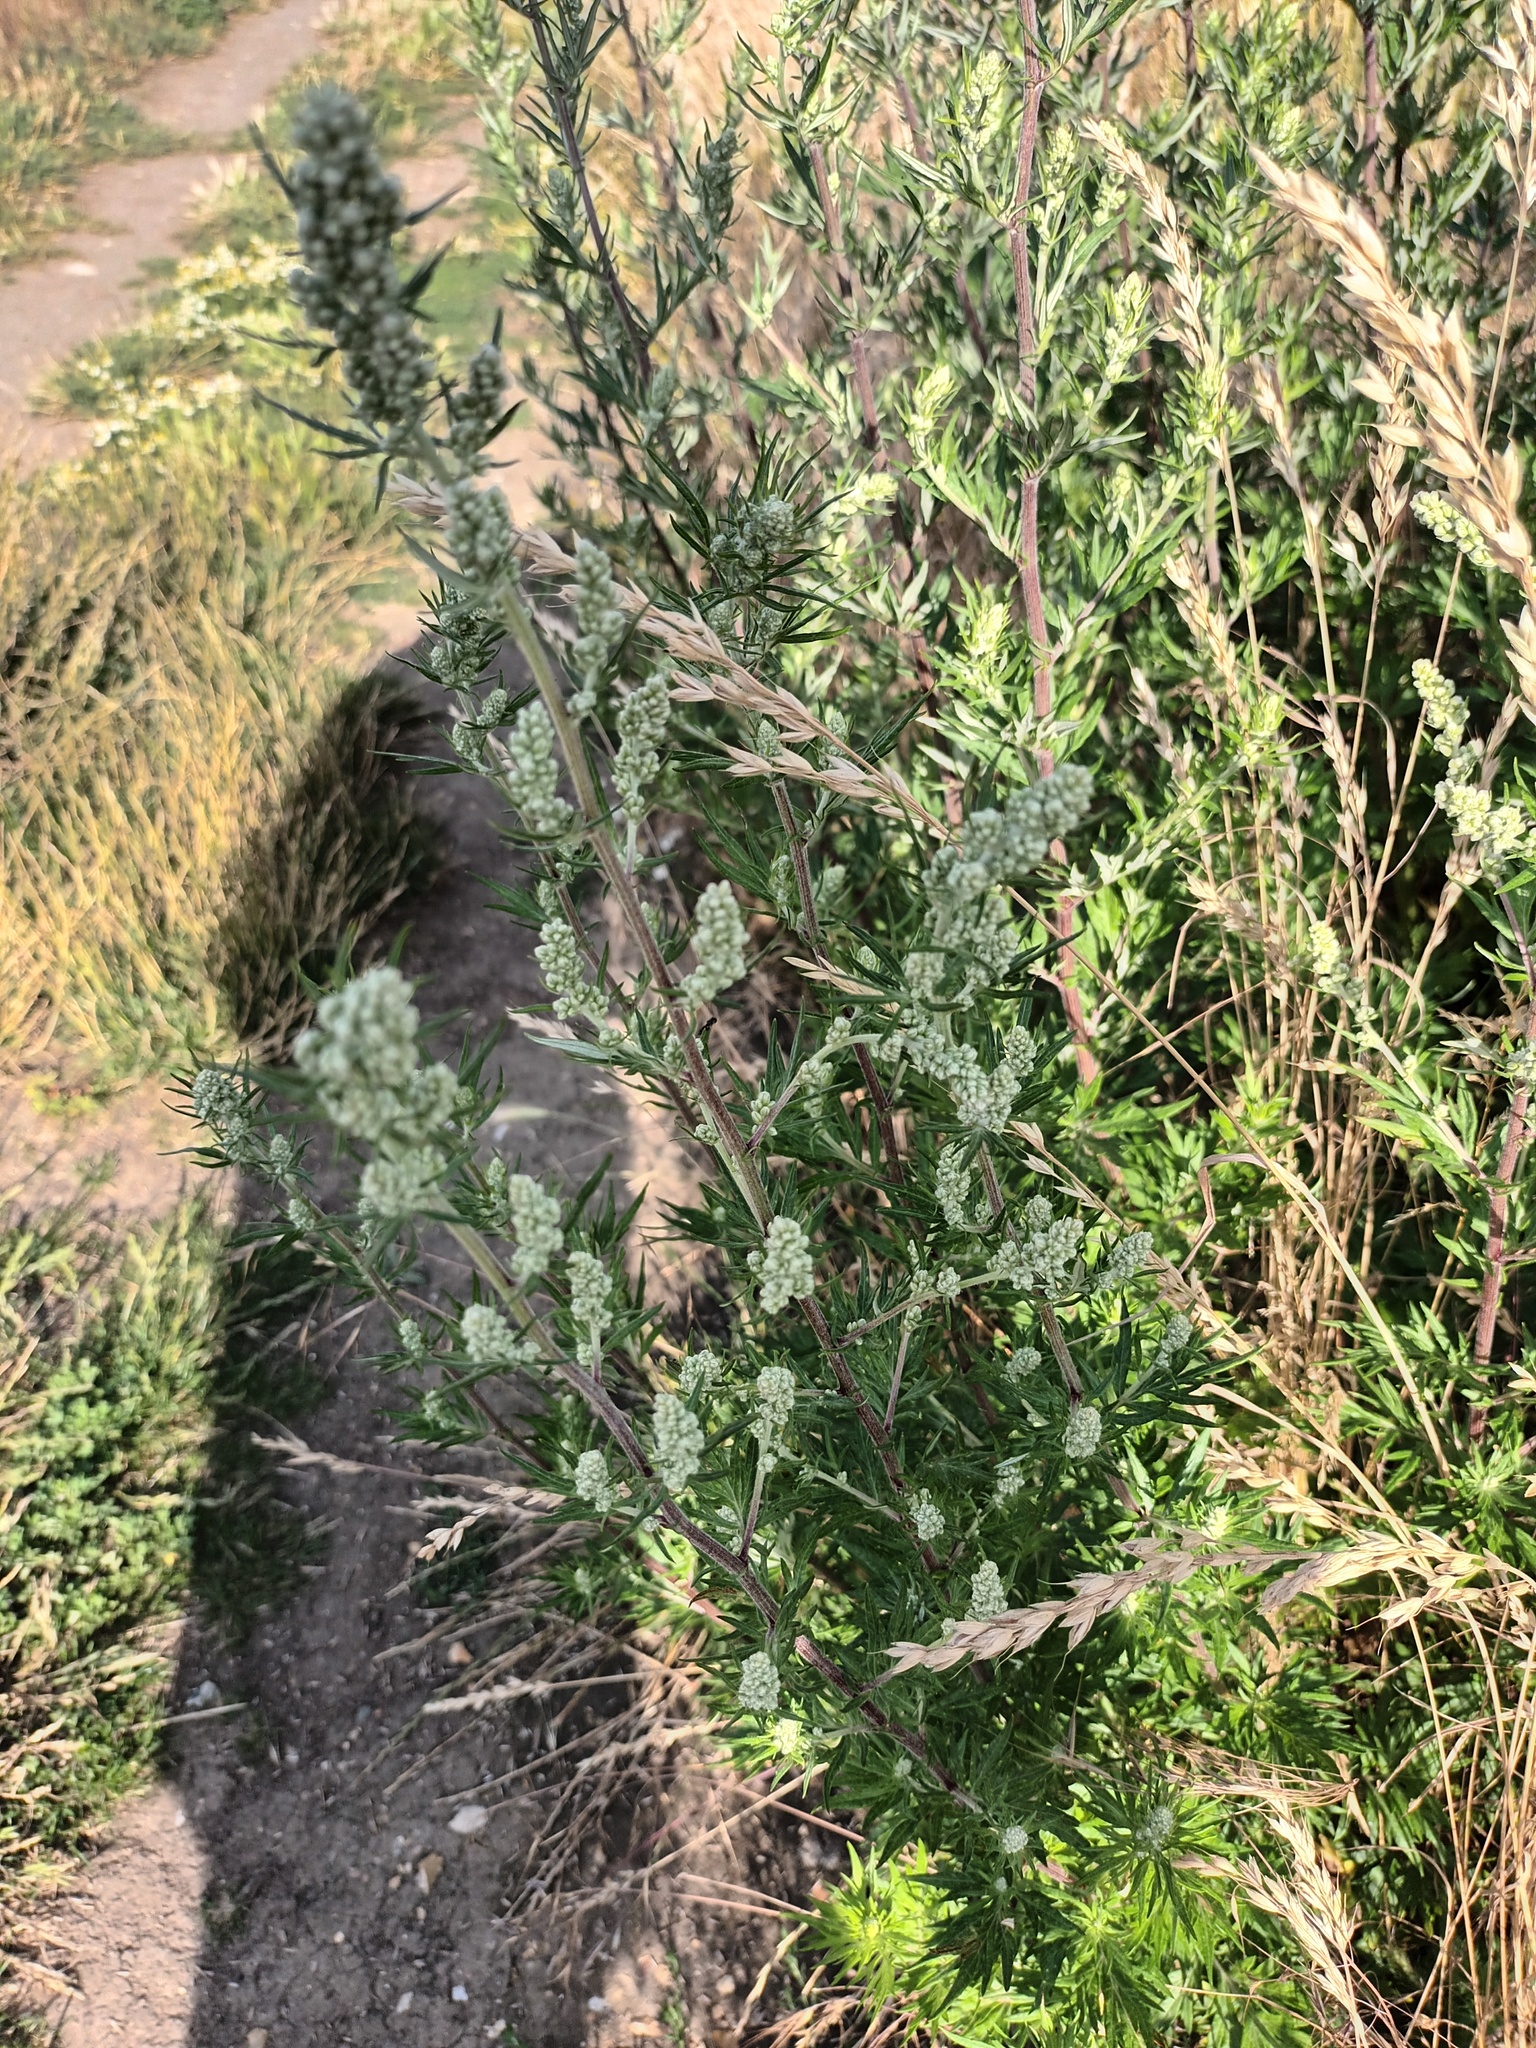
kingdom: Plantae
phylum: Tracheophyta
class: Magnoliopsida
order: Asterales
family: Asteraceae
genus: Artemisia
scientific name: Artemisia vulgaris
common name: Mugwort
